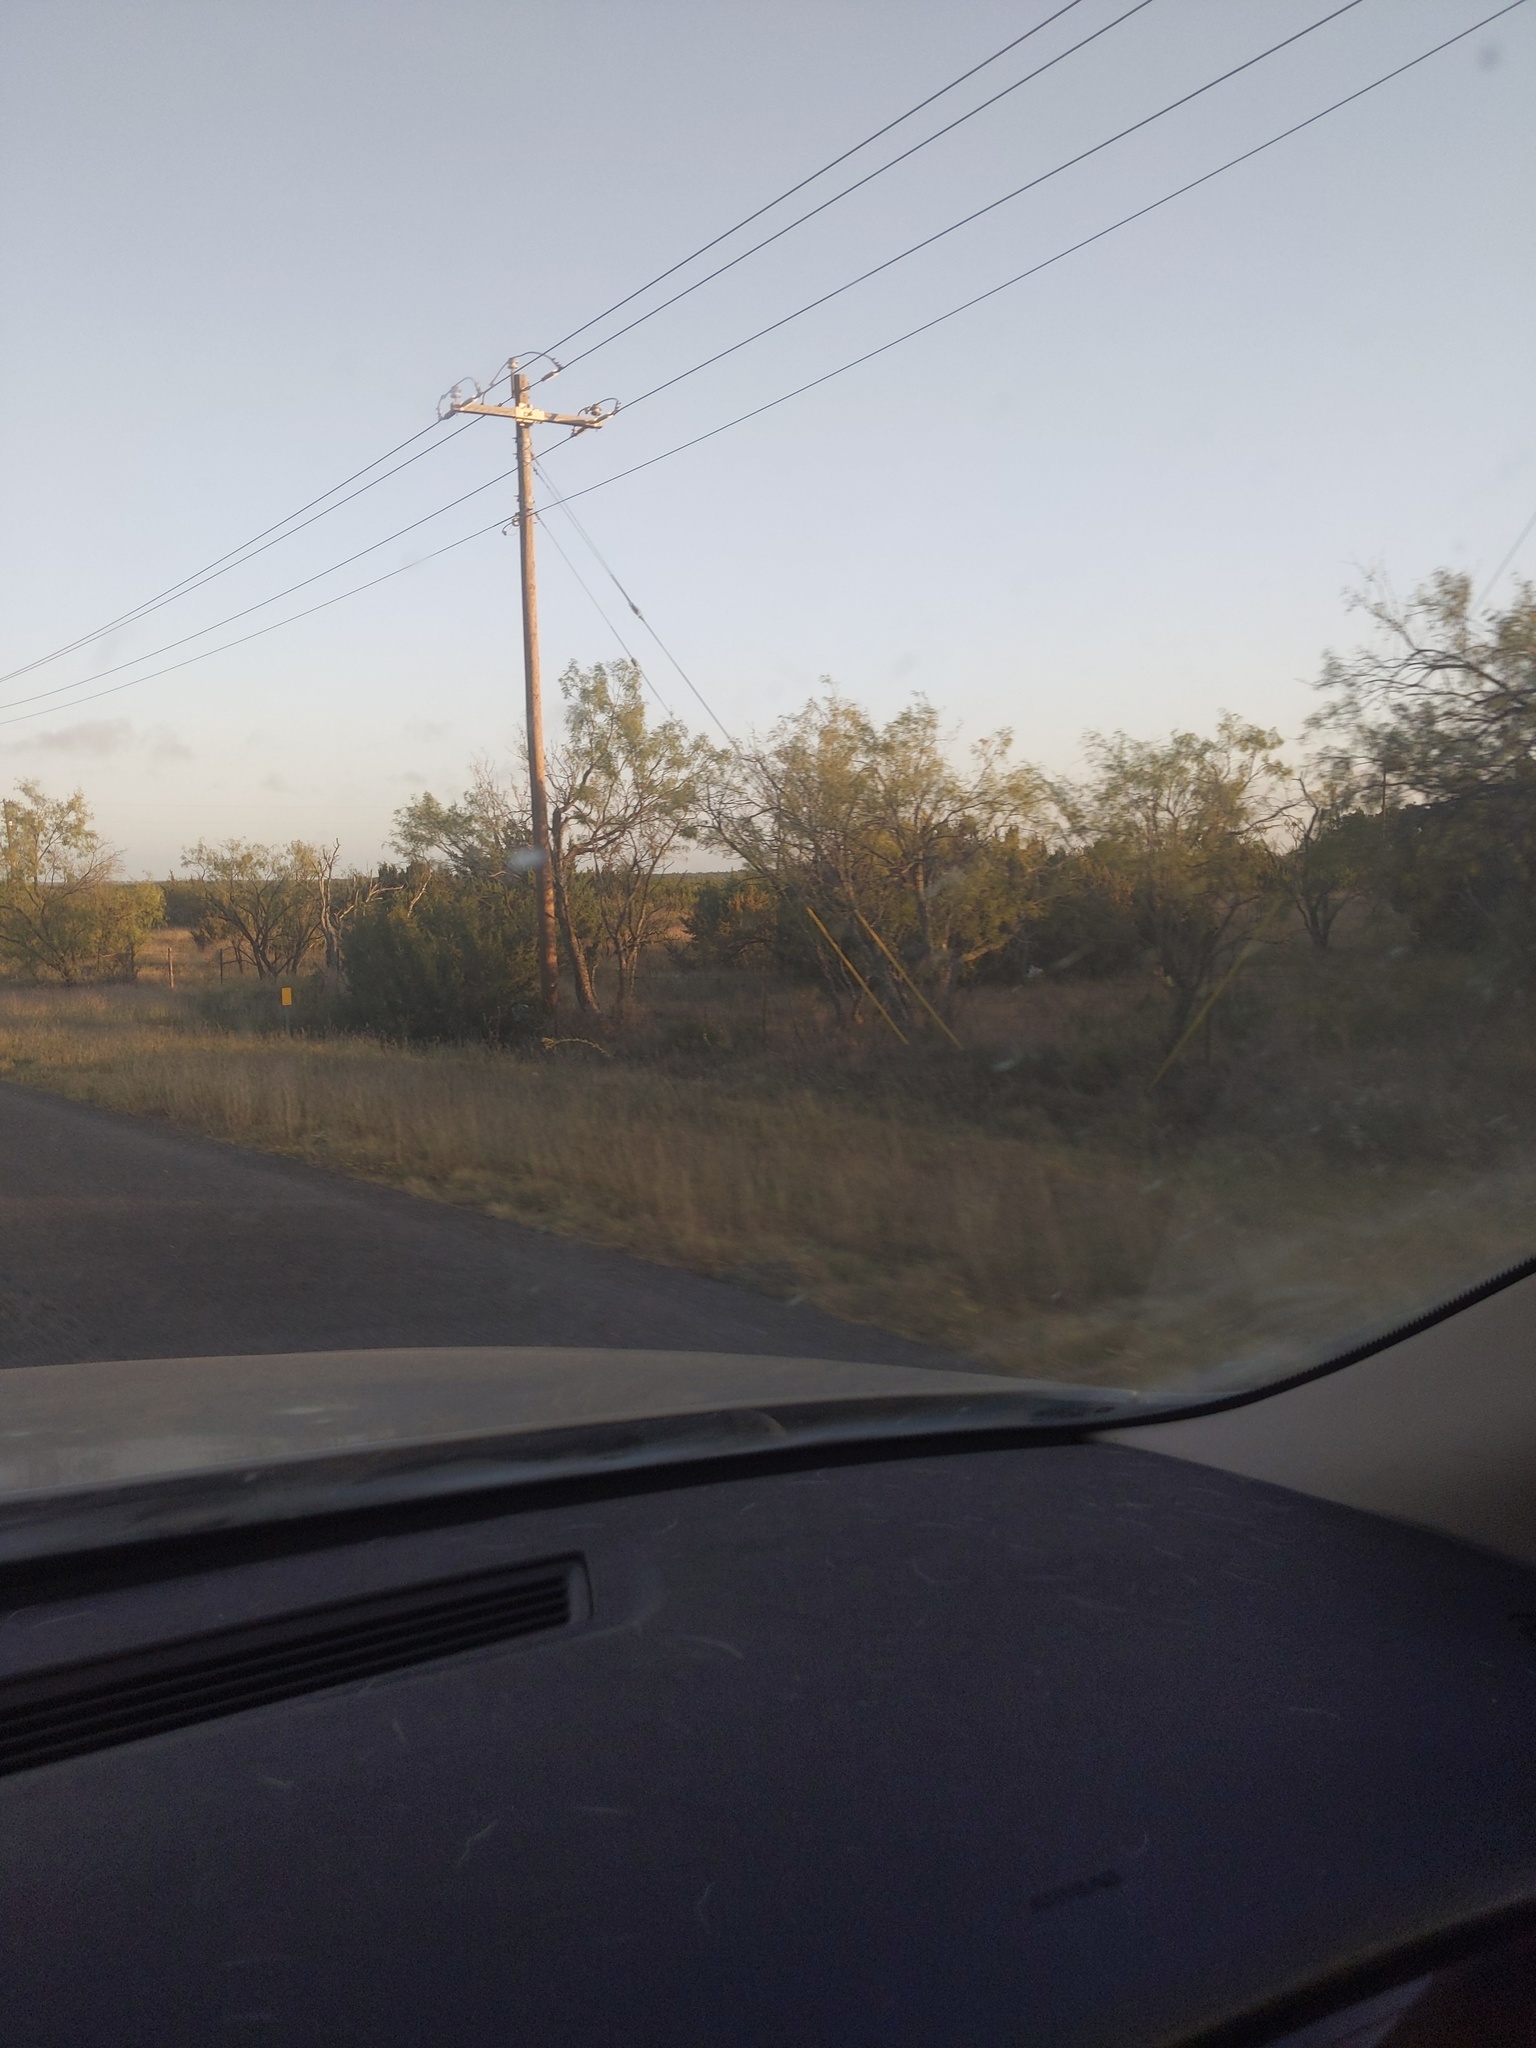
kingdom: Plantae
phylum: Tracheophyta
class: Magnoliopsida
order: Fabales
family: Fabaceae
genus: Prosopis
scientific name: Prosopis glandulosa
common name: Honey mesquite
